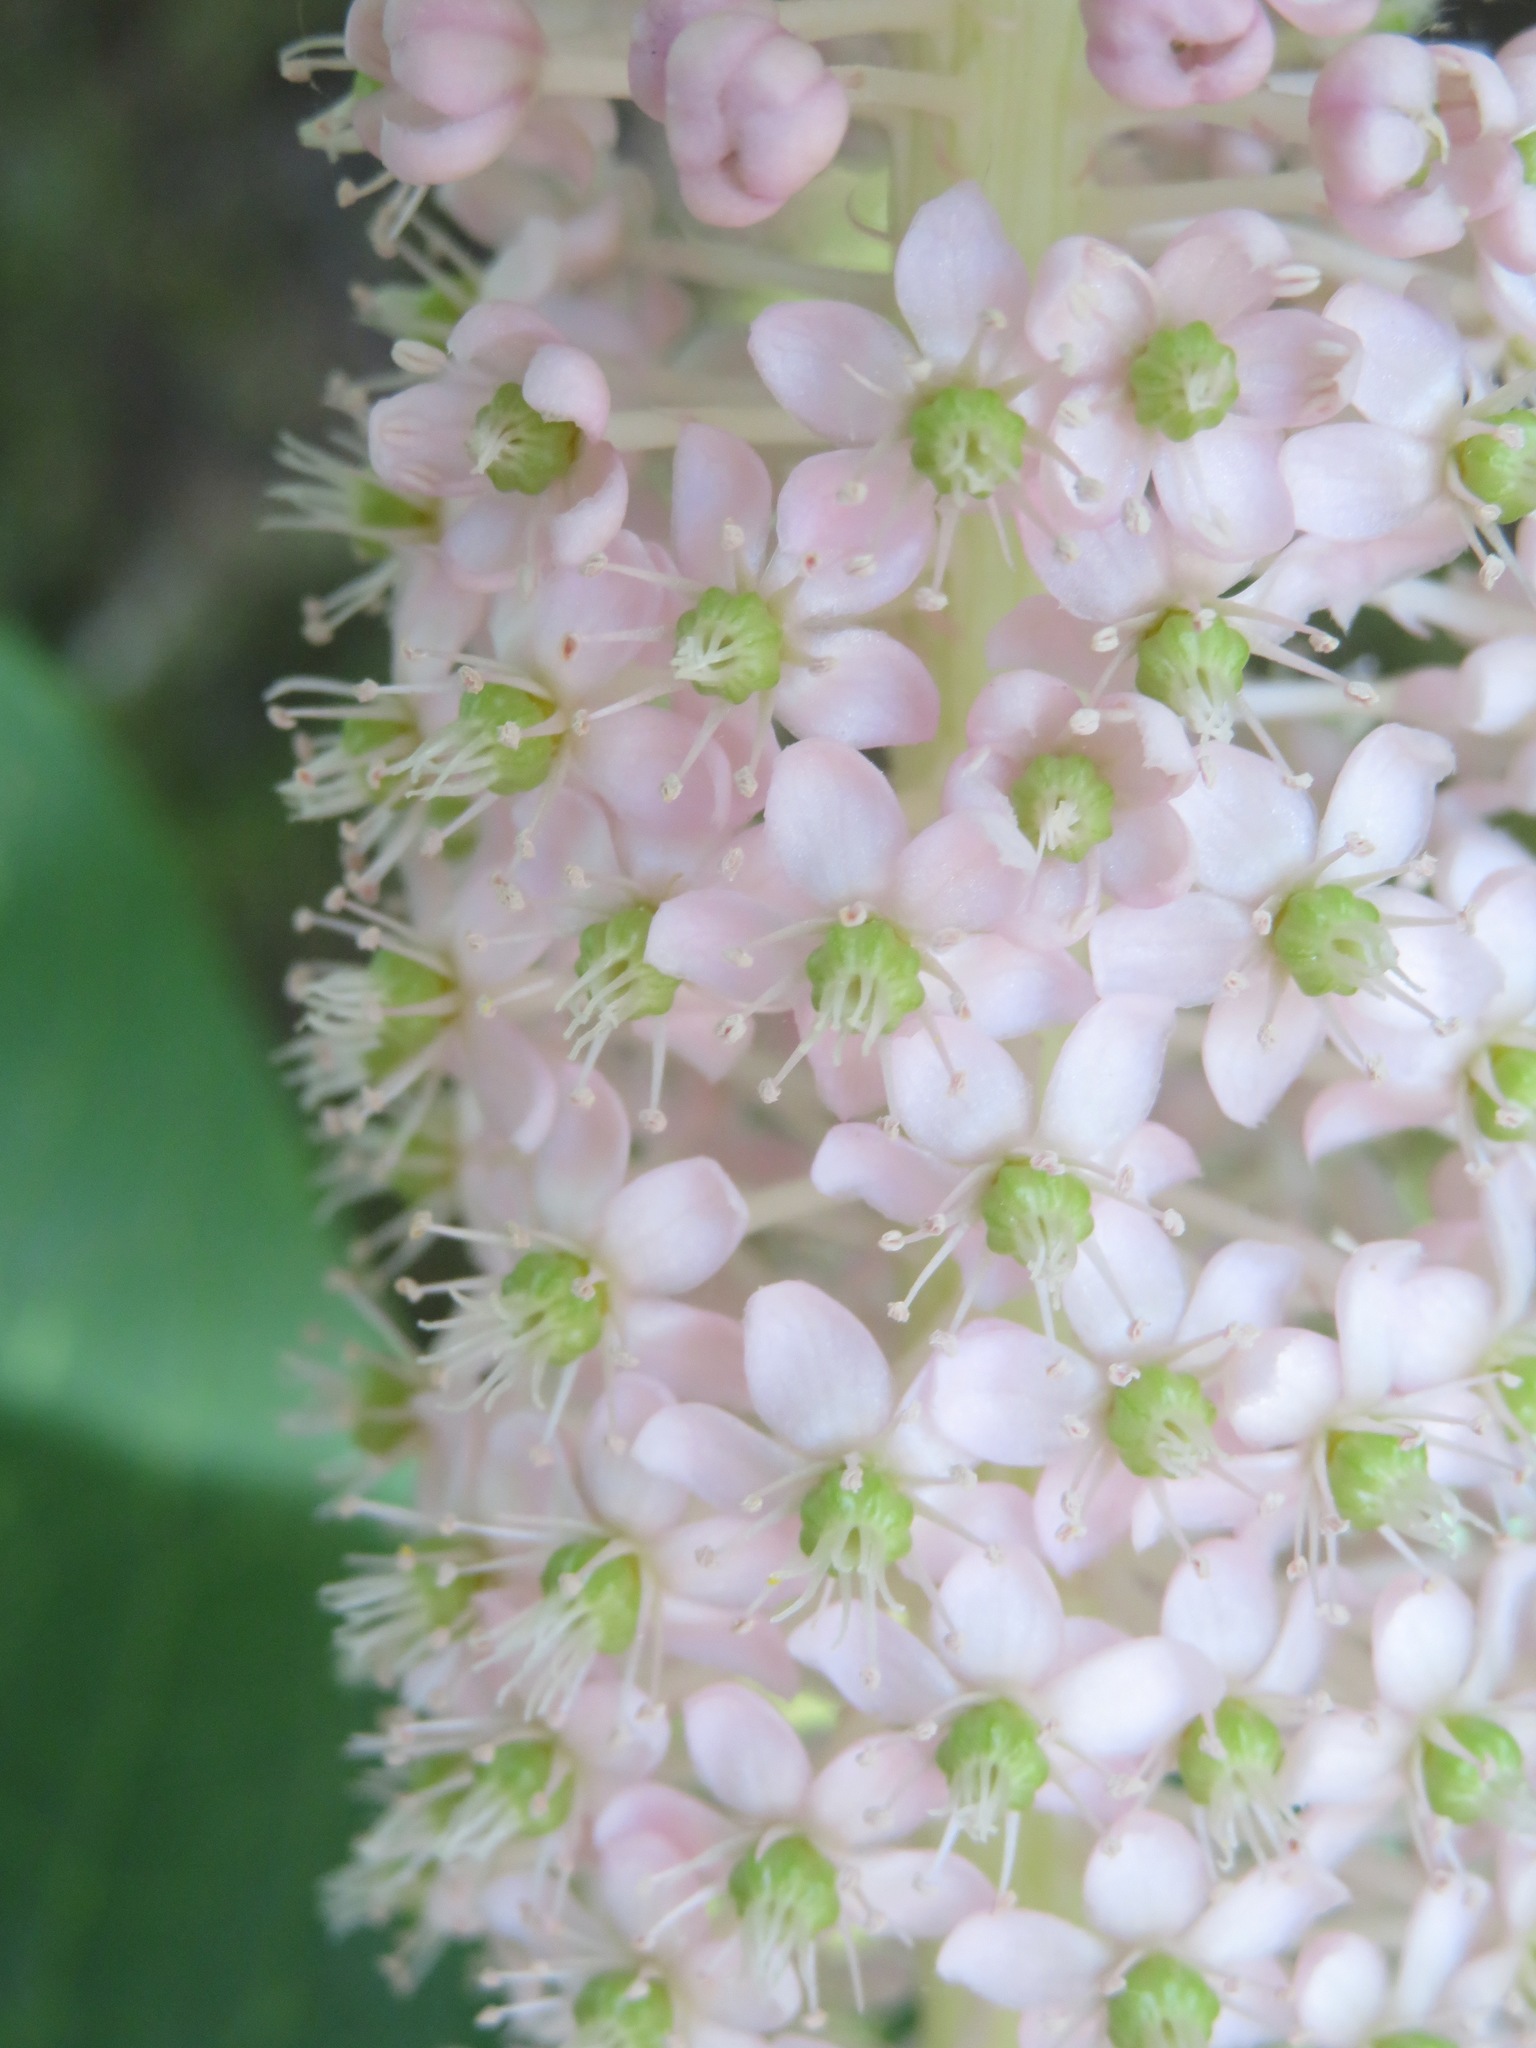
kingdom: Plantae
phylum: Tracheophyta
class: Magnoliopsida
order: Caryophyllales
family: Phytolaccaceae
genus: Phytolacca
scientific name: Phytolacca japonica
